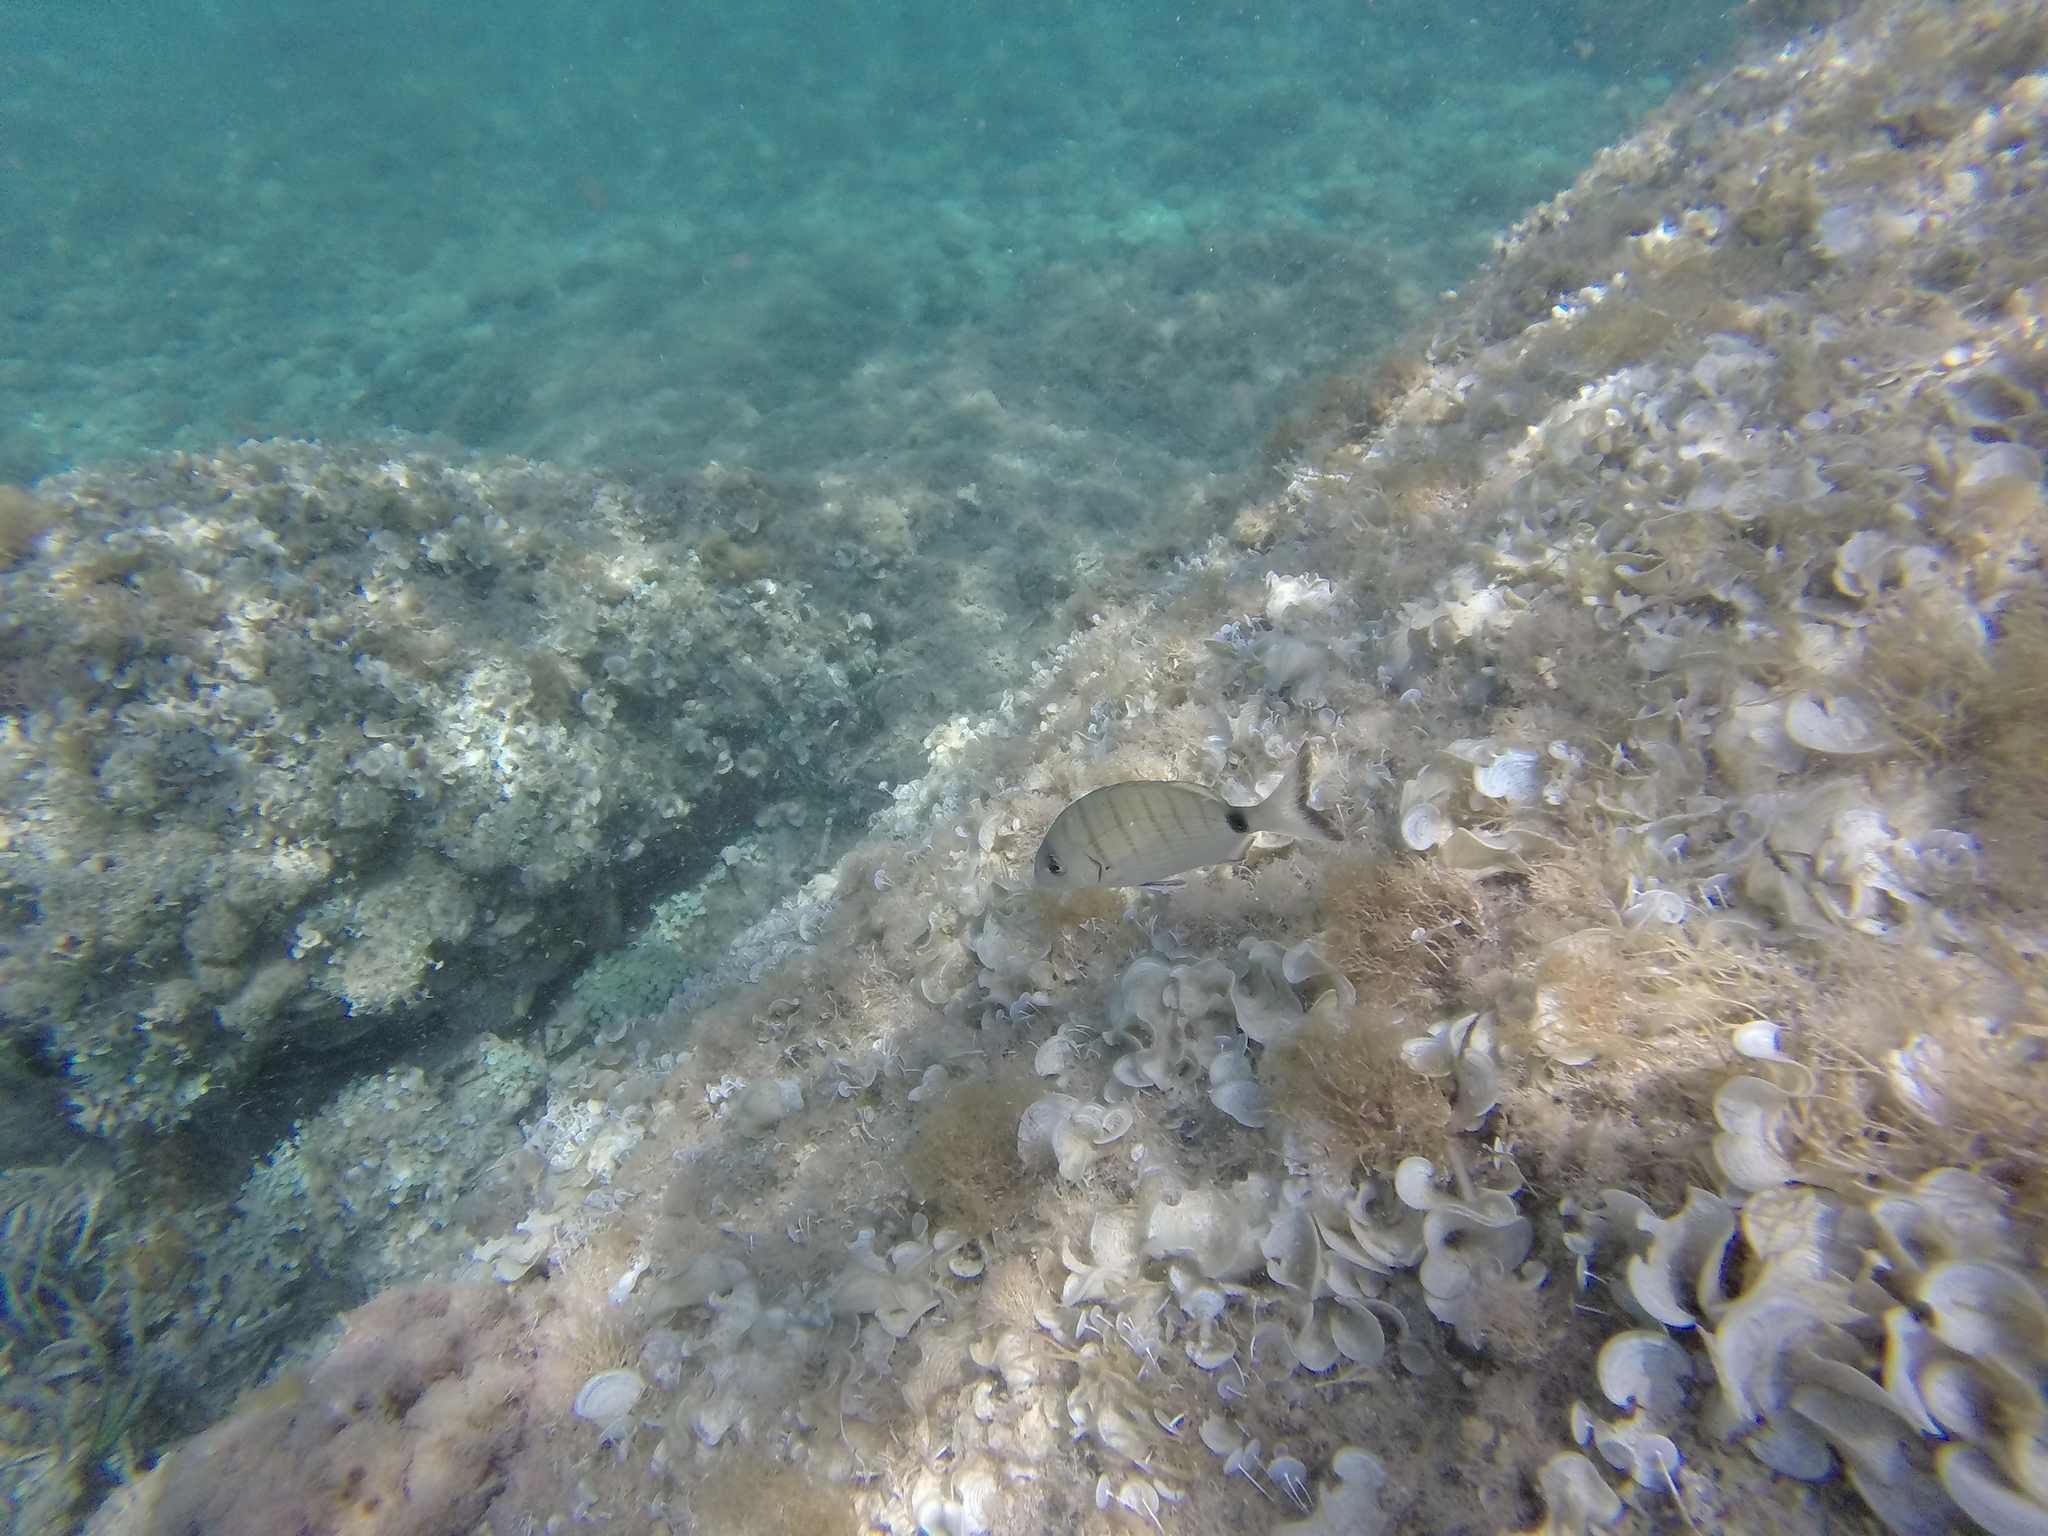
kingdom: Animalia
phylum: Chordata
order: Perciformes
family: Sparidae
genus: Diplodus
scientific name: Diplodus sargus
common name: White seabream
